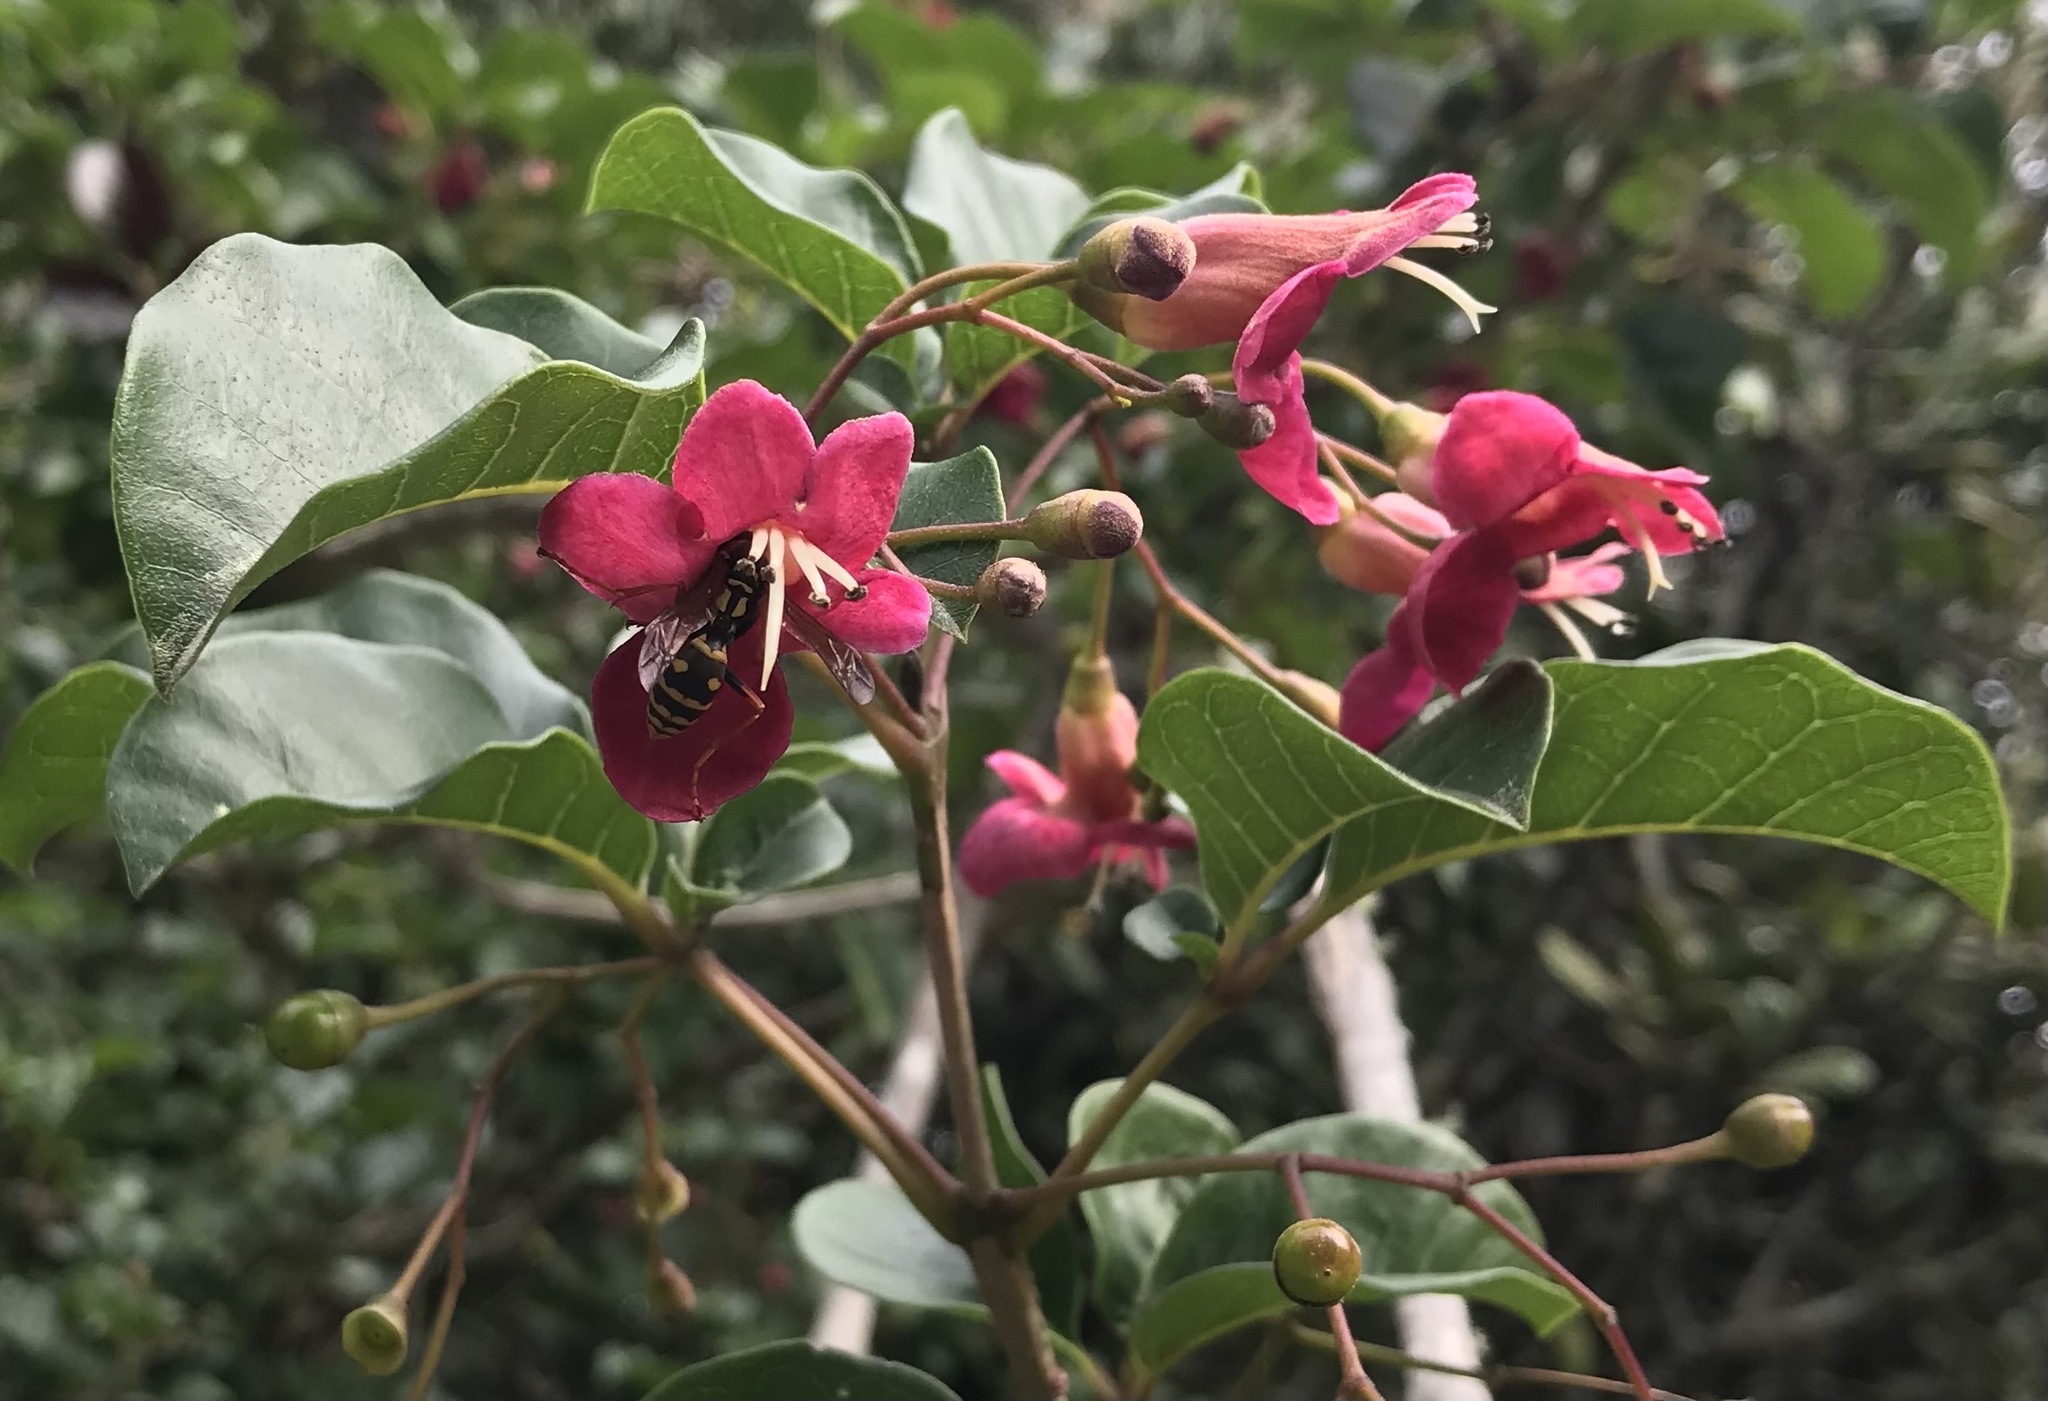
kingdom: Plantae
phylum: Tracheophyta
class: Magnoliopsida
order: Lamiales
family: Lamiaceae
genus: Vitex
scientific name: Vitex lucens
